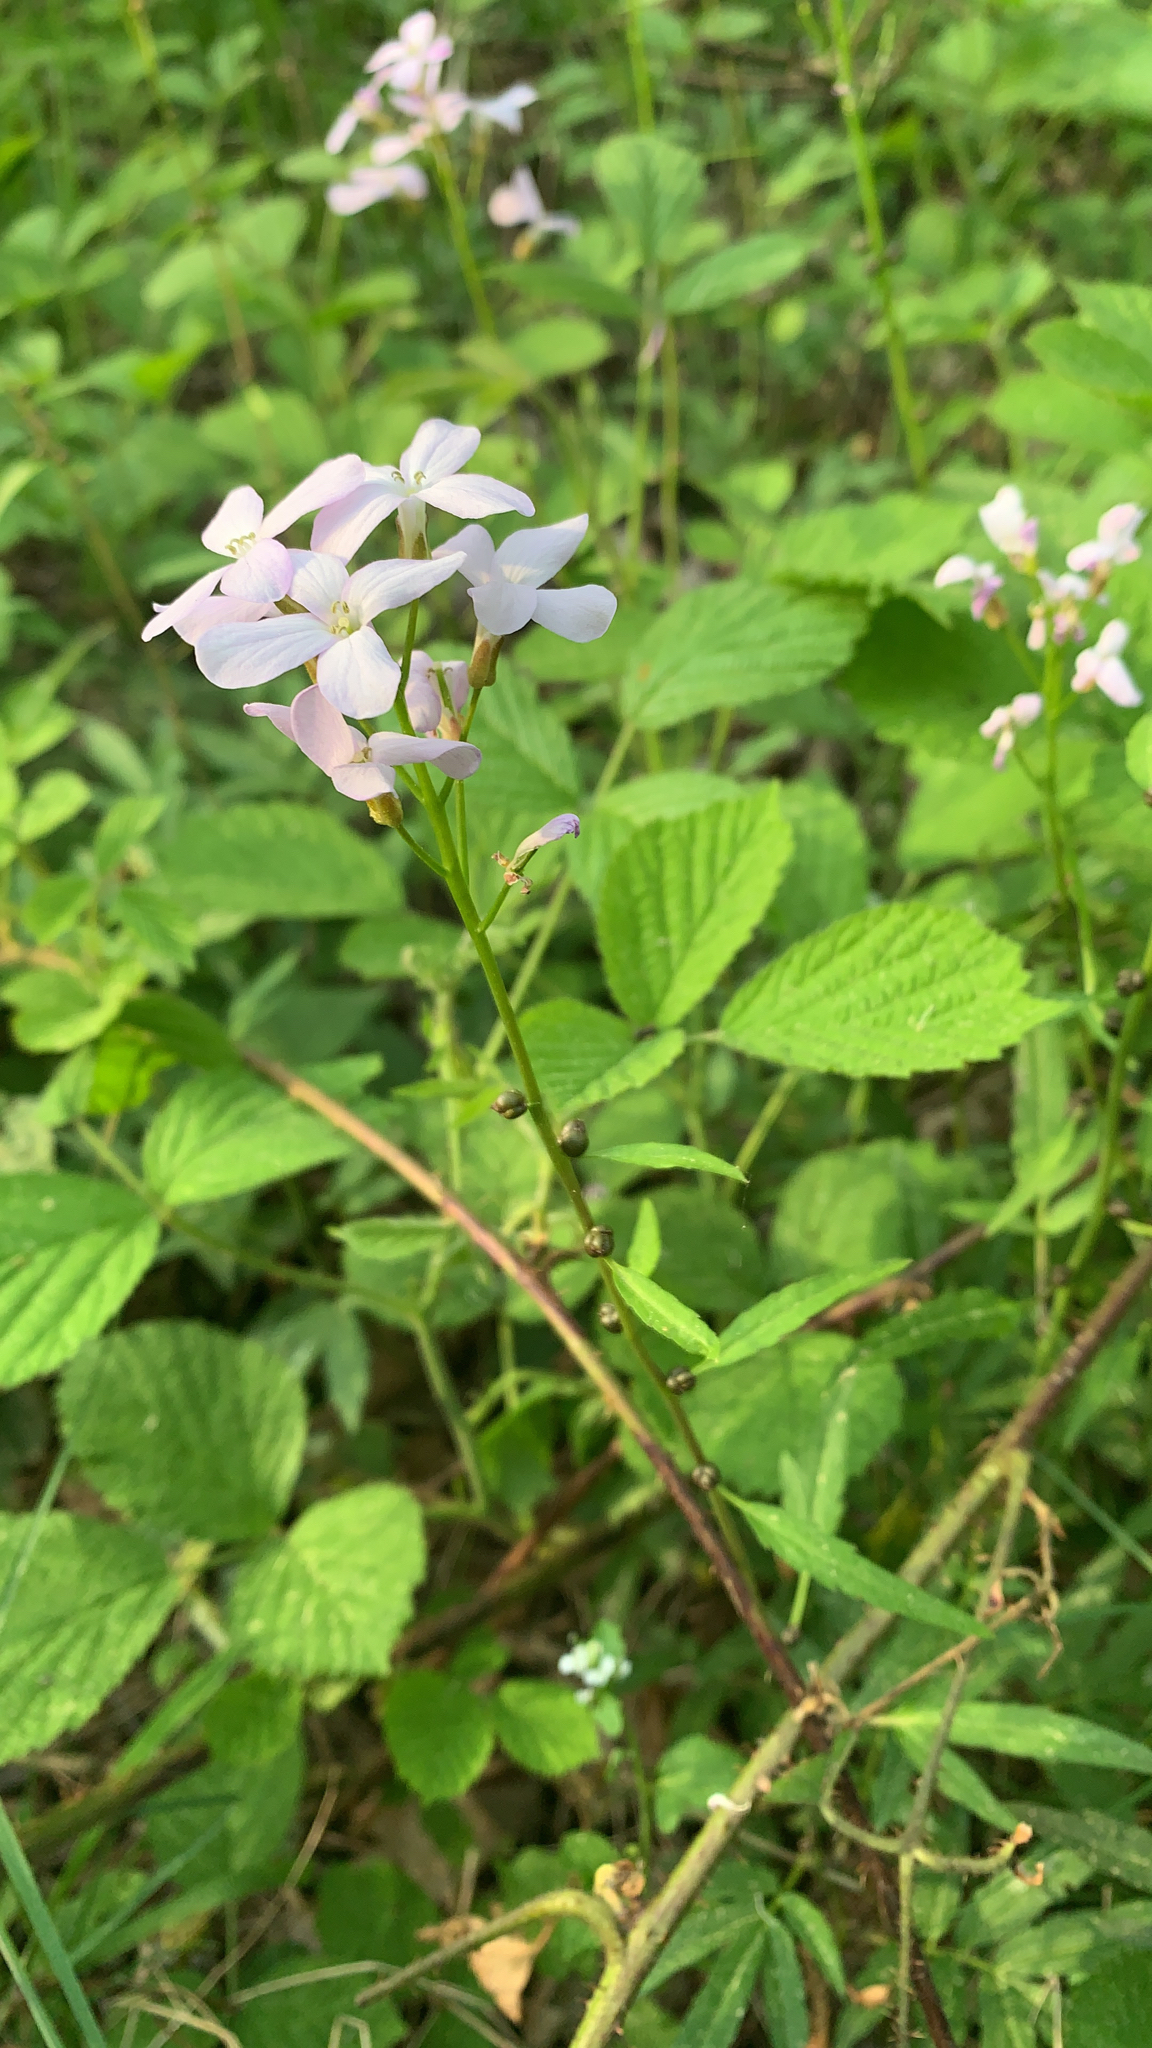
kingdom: Plantae
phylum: Tracheophyta
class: Magnoliopsida
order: Brassicales
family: Brassicaceae
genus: Cardamine
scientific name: Cardamine bulbifera
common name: Coralroot bittercress
